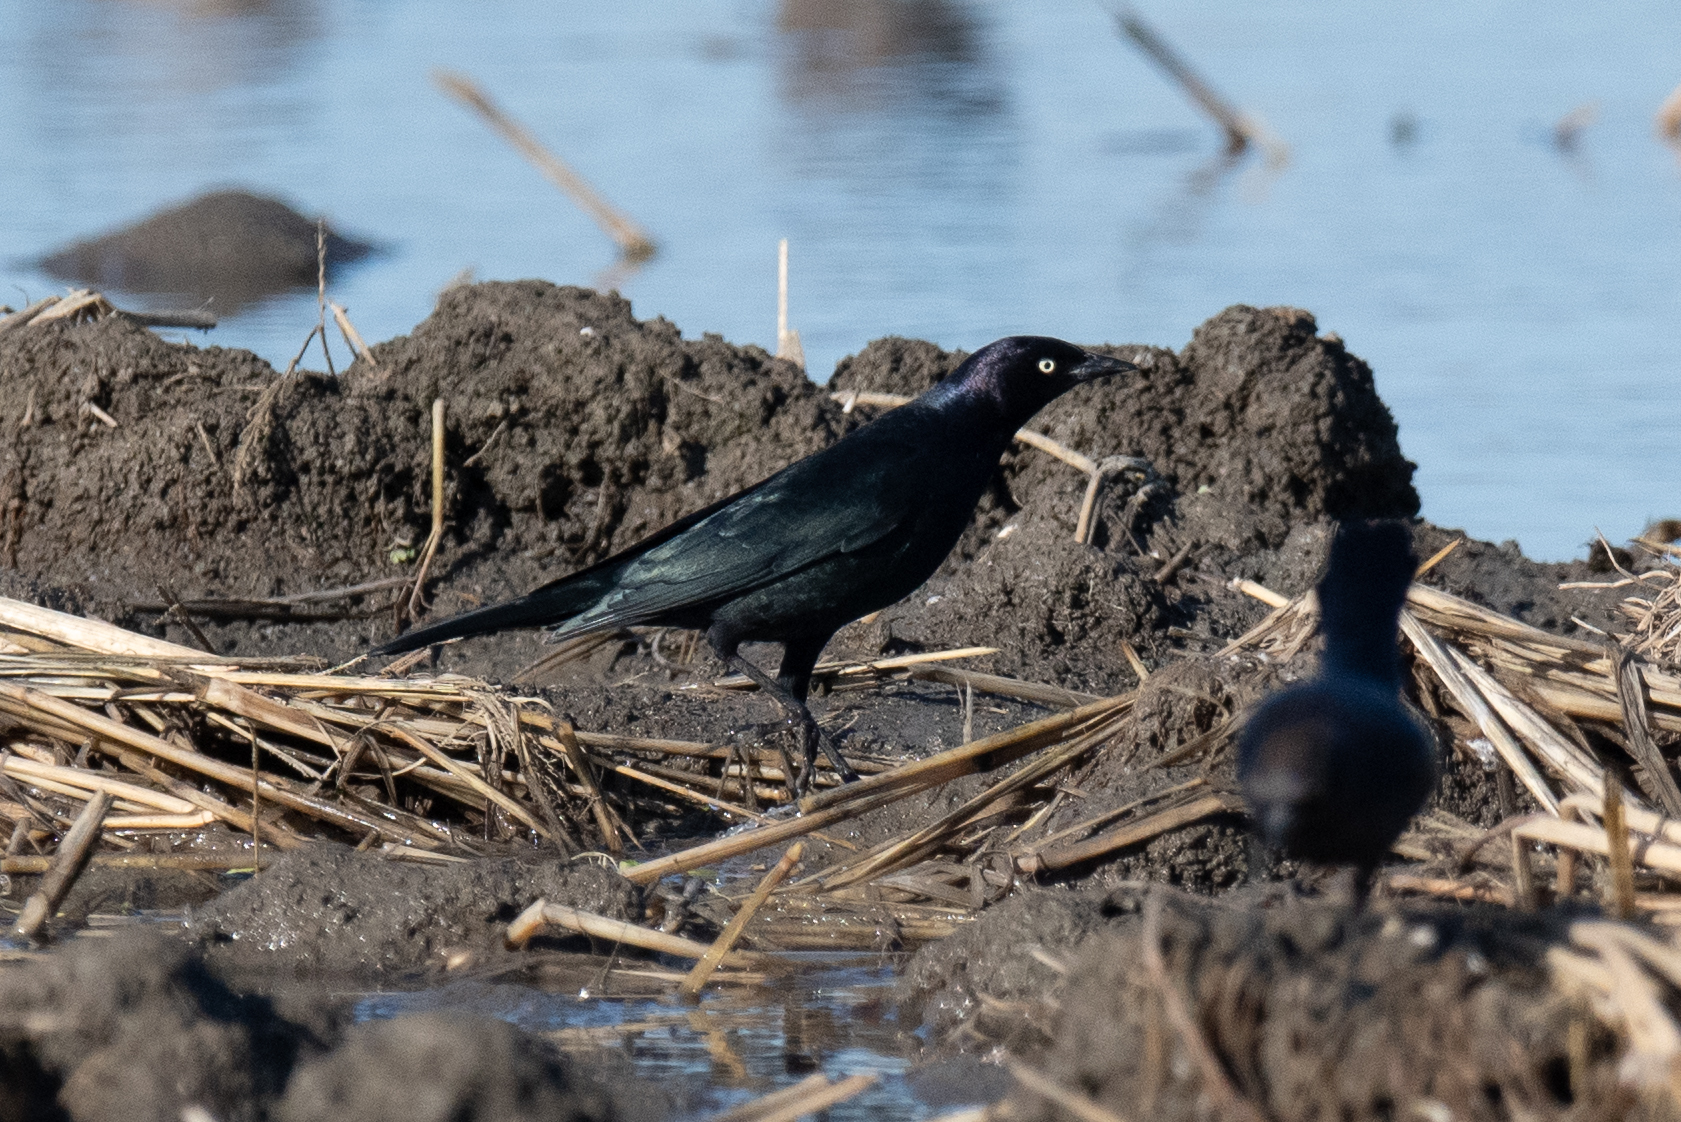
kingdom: Animalia
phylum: Chordata
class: Aves
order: Passeriformes
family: Icteridae
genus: Euphagus
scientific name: Euphagus cyanocephalus
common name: Brewer's blackbird
